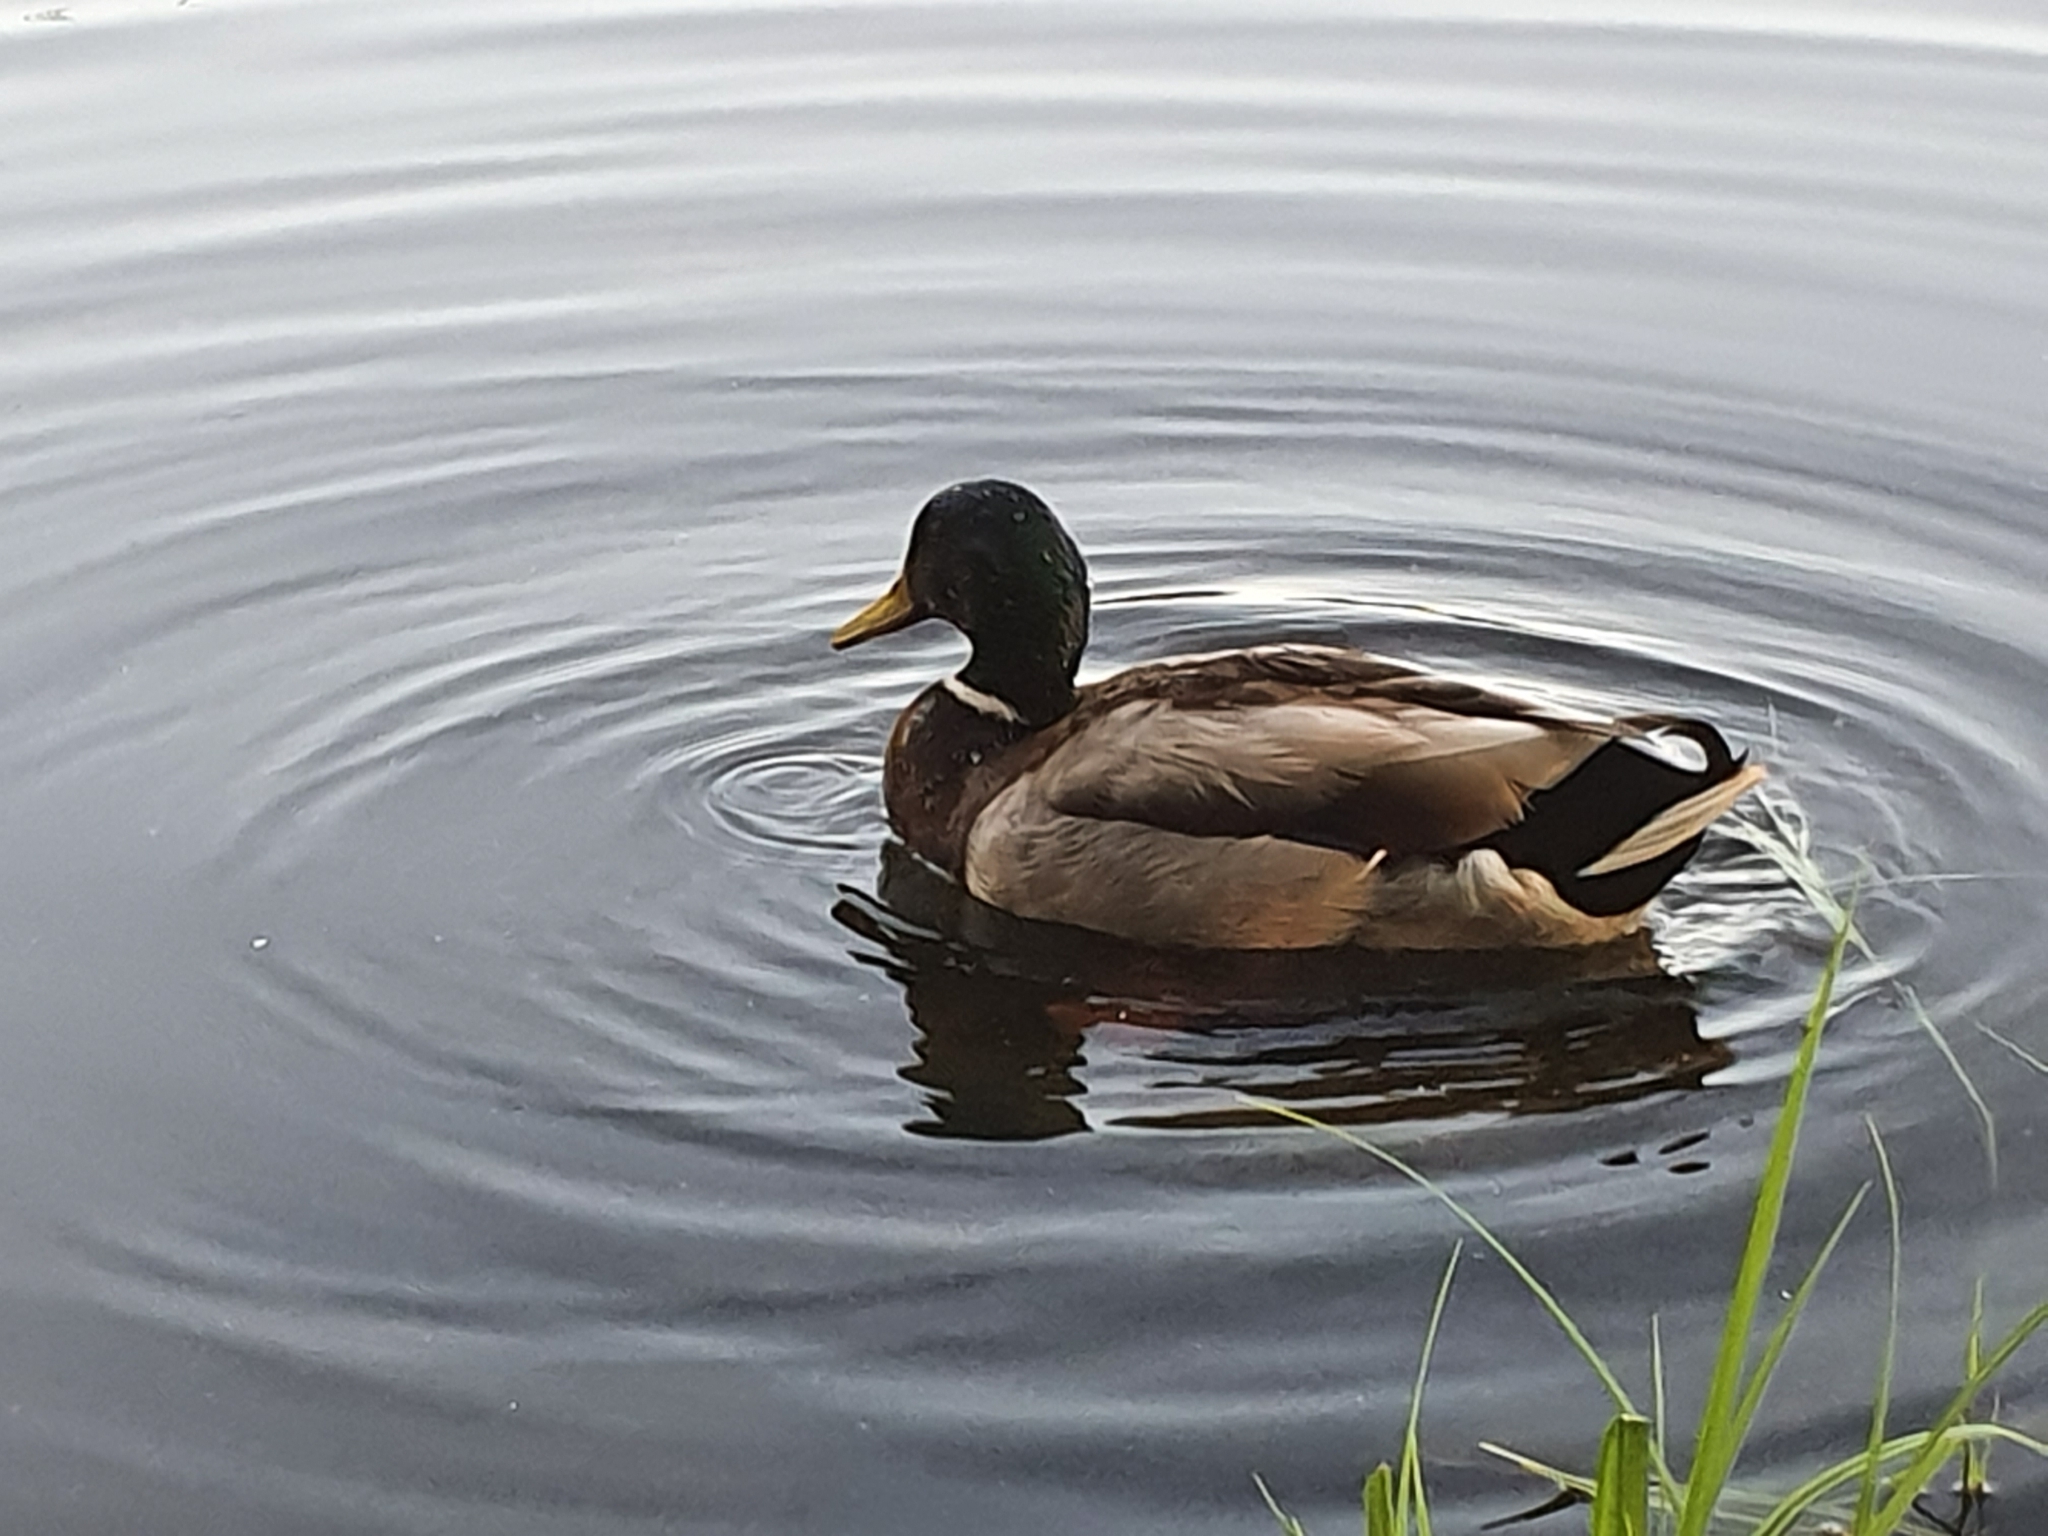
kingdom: Animalia
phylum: Chordata
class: Aves
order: Anseriformes
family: Anatidae
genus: Anas
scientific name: Anas platyrhynchos
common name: Mallard
